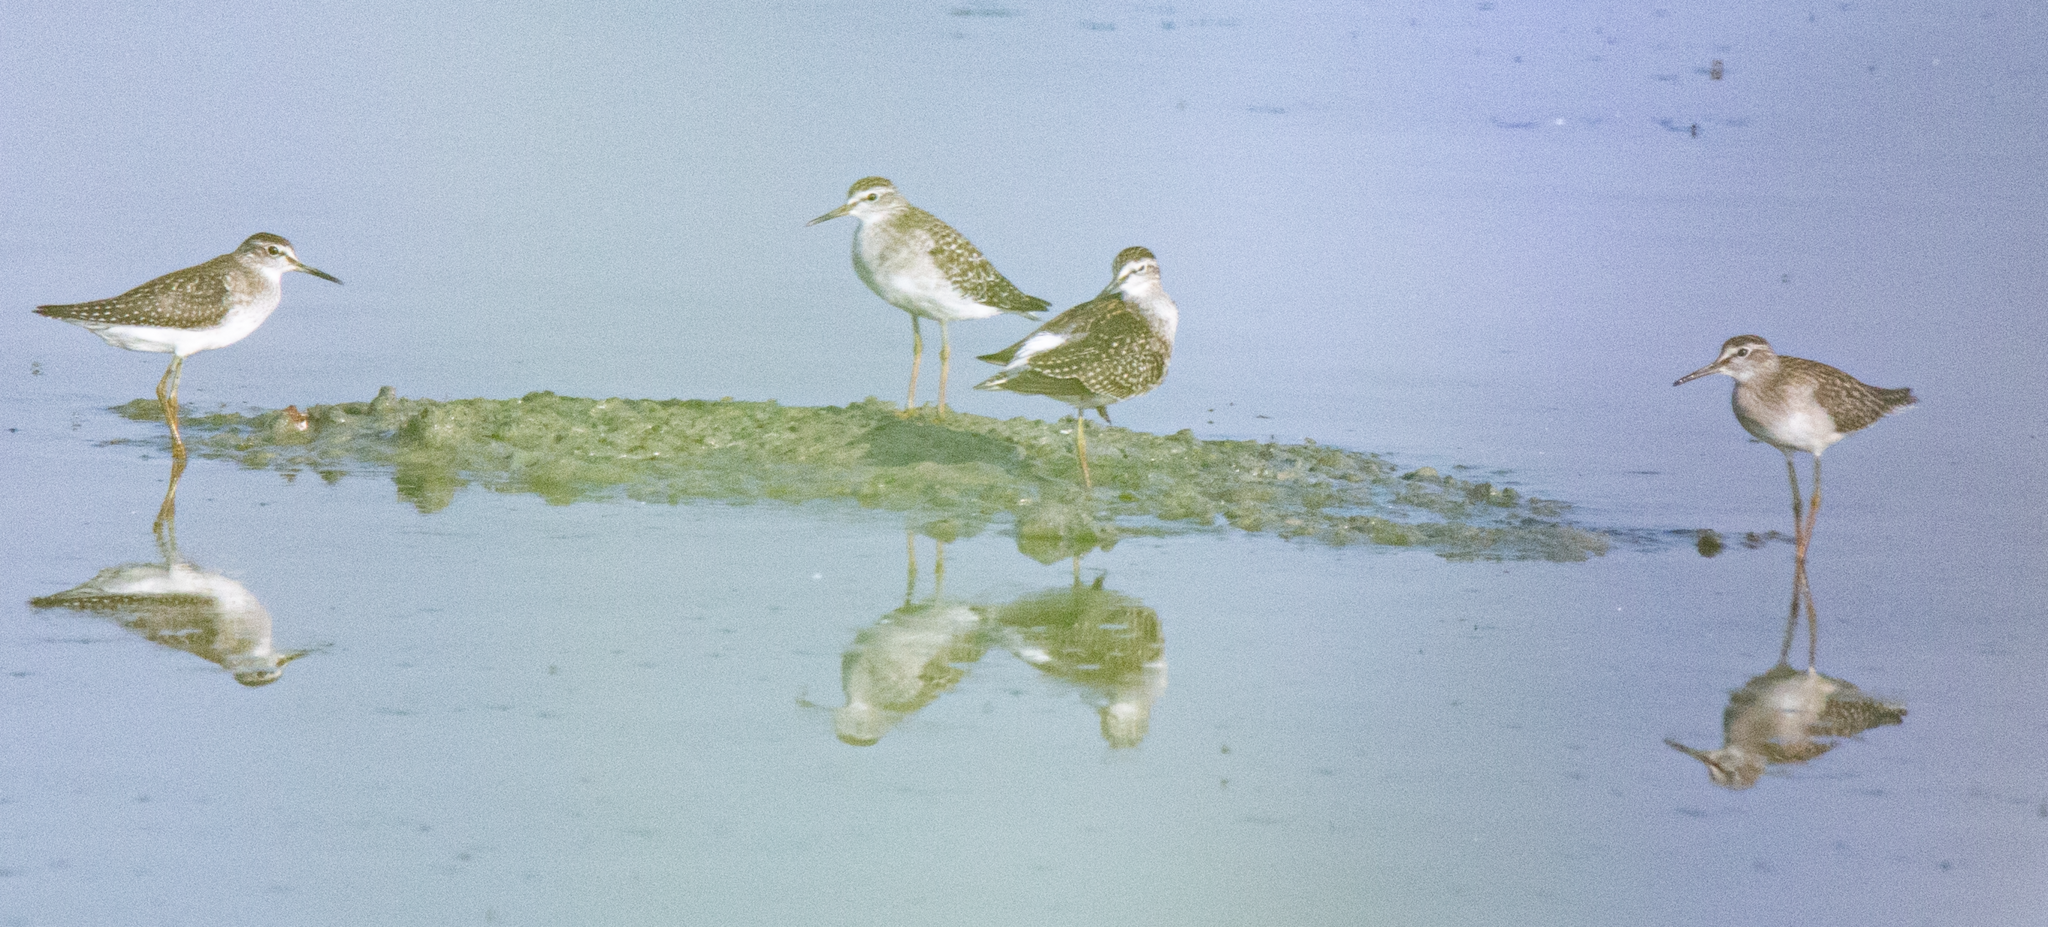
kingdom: Animalia
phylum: Chordata
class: Aves
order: Charadriiformes
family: Scolopacidae
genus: Tringa
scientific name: Tringa glareola
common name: Wood sandpiper
